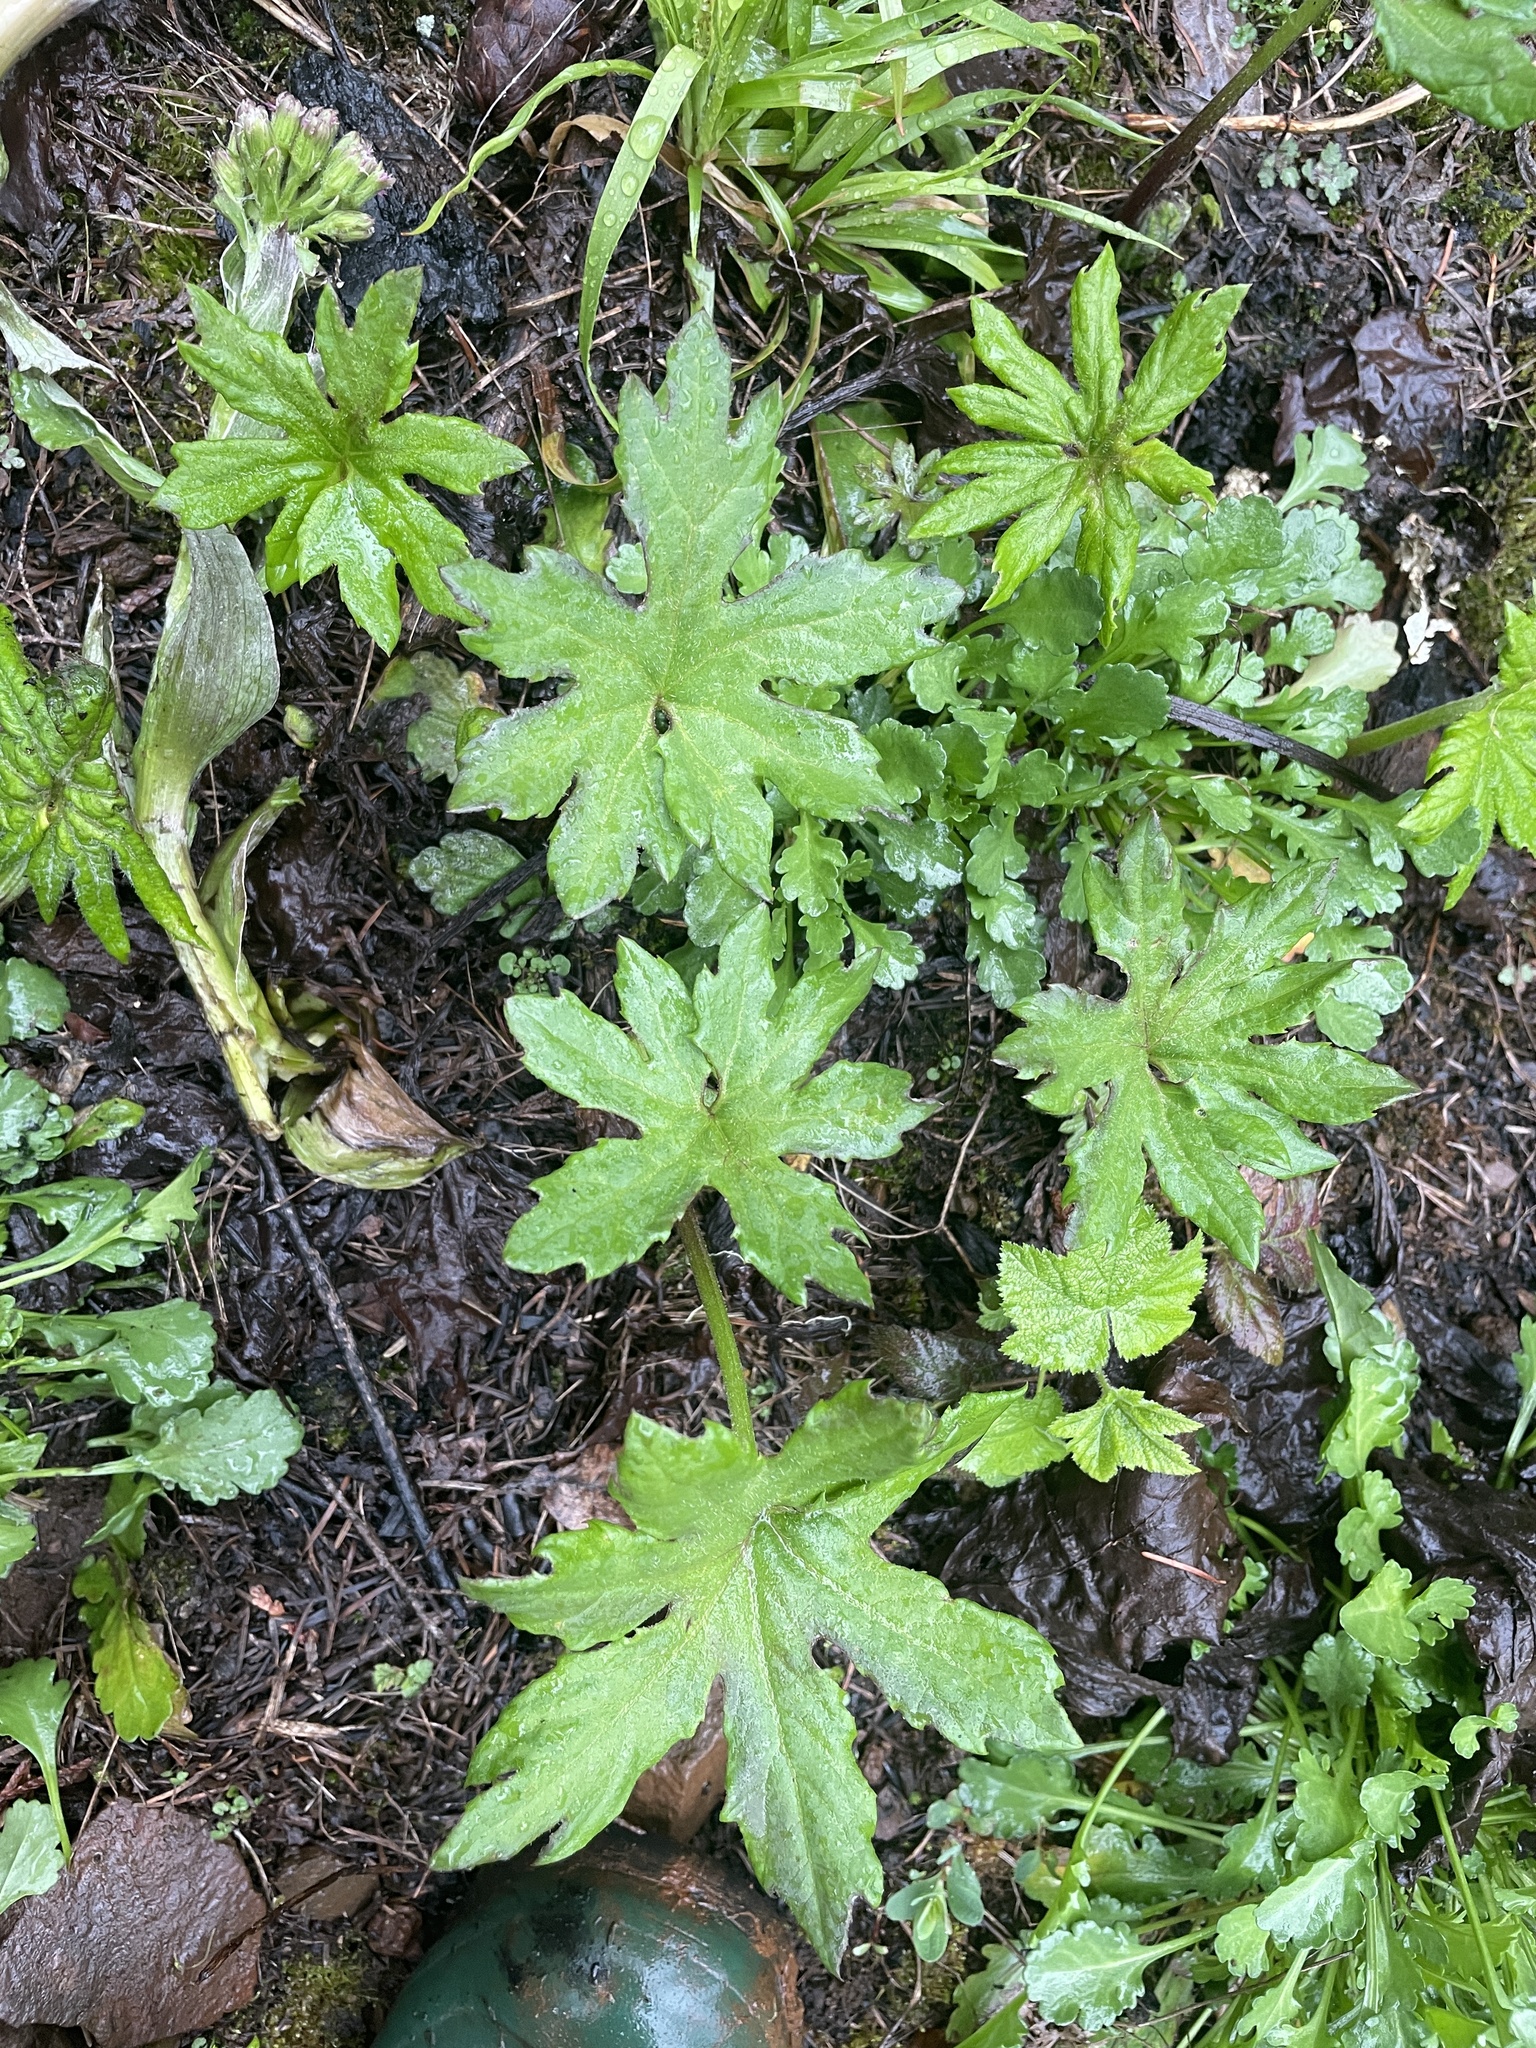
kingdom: Plantae
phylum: Tracheophyta
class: Magnoliopsida
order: Asterales
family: Asteraceae
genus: Petasites
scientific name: Petasites frigidus
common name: Arctic butterbur
